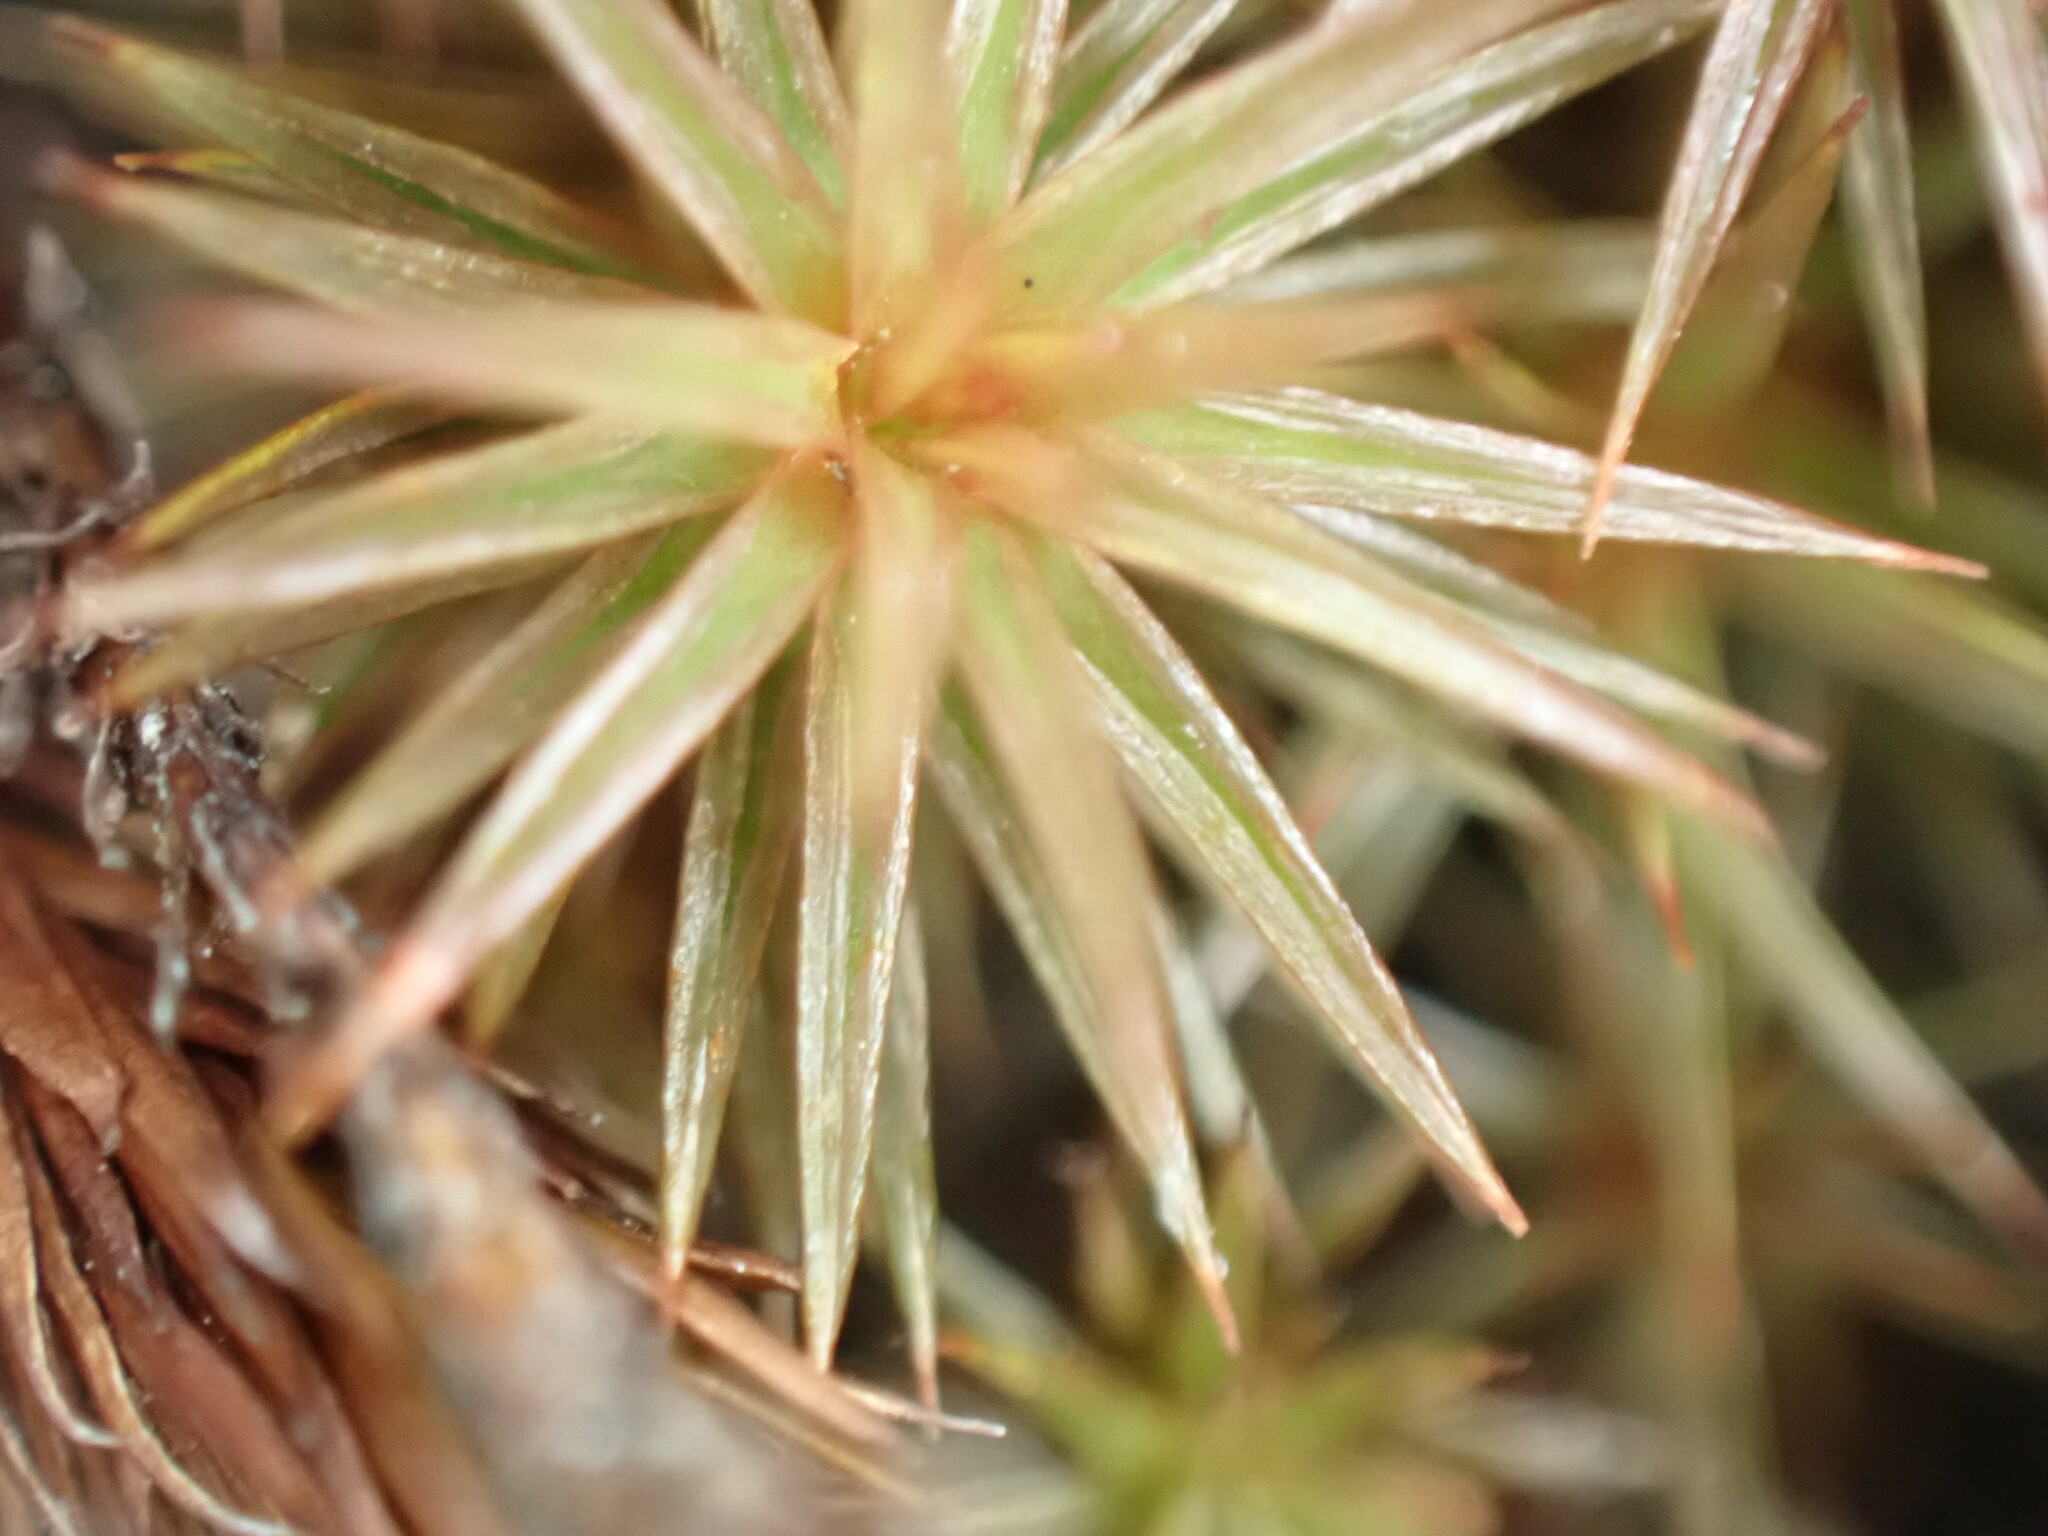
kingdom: Plantae
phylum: Bryophyta
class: Polytrichopsida
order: Polytrichales
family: Polytrichaceae
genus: Polytrichum
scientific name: Polytrichum juniperinum
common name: Juniper haircap moss
